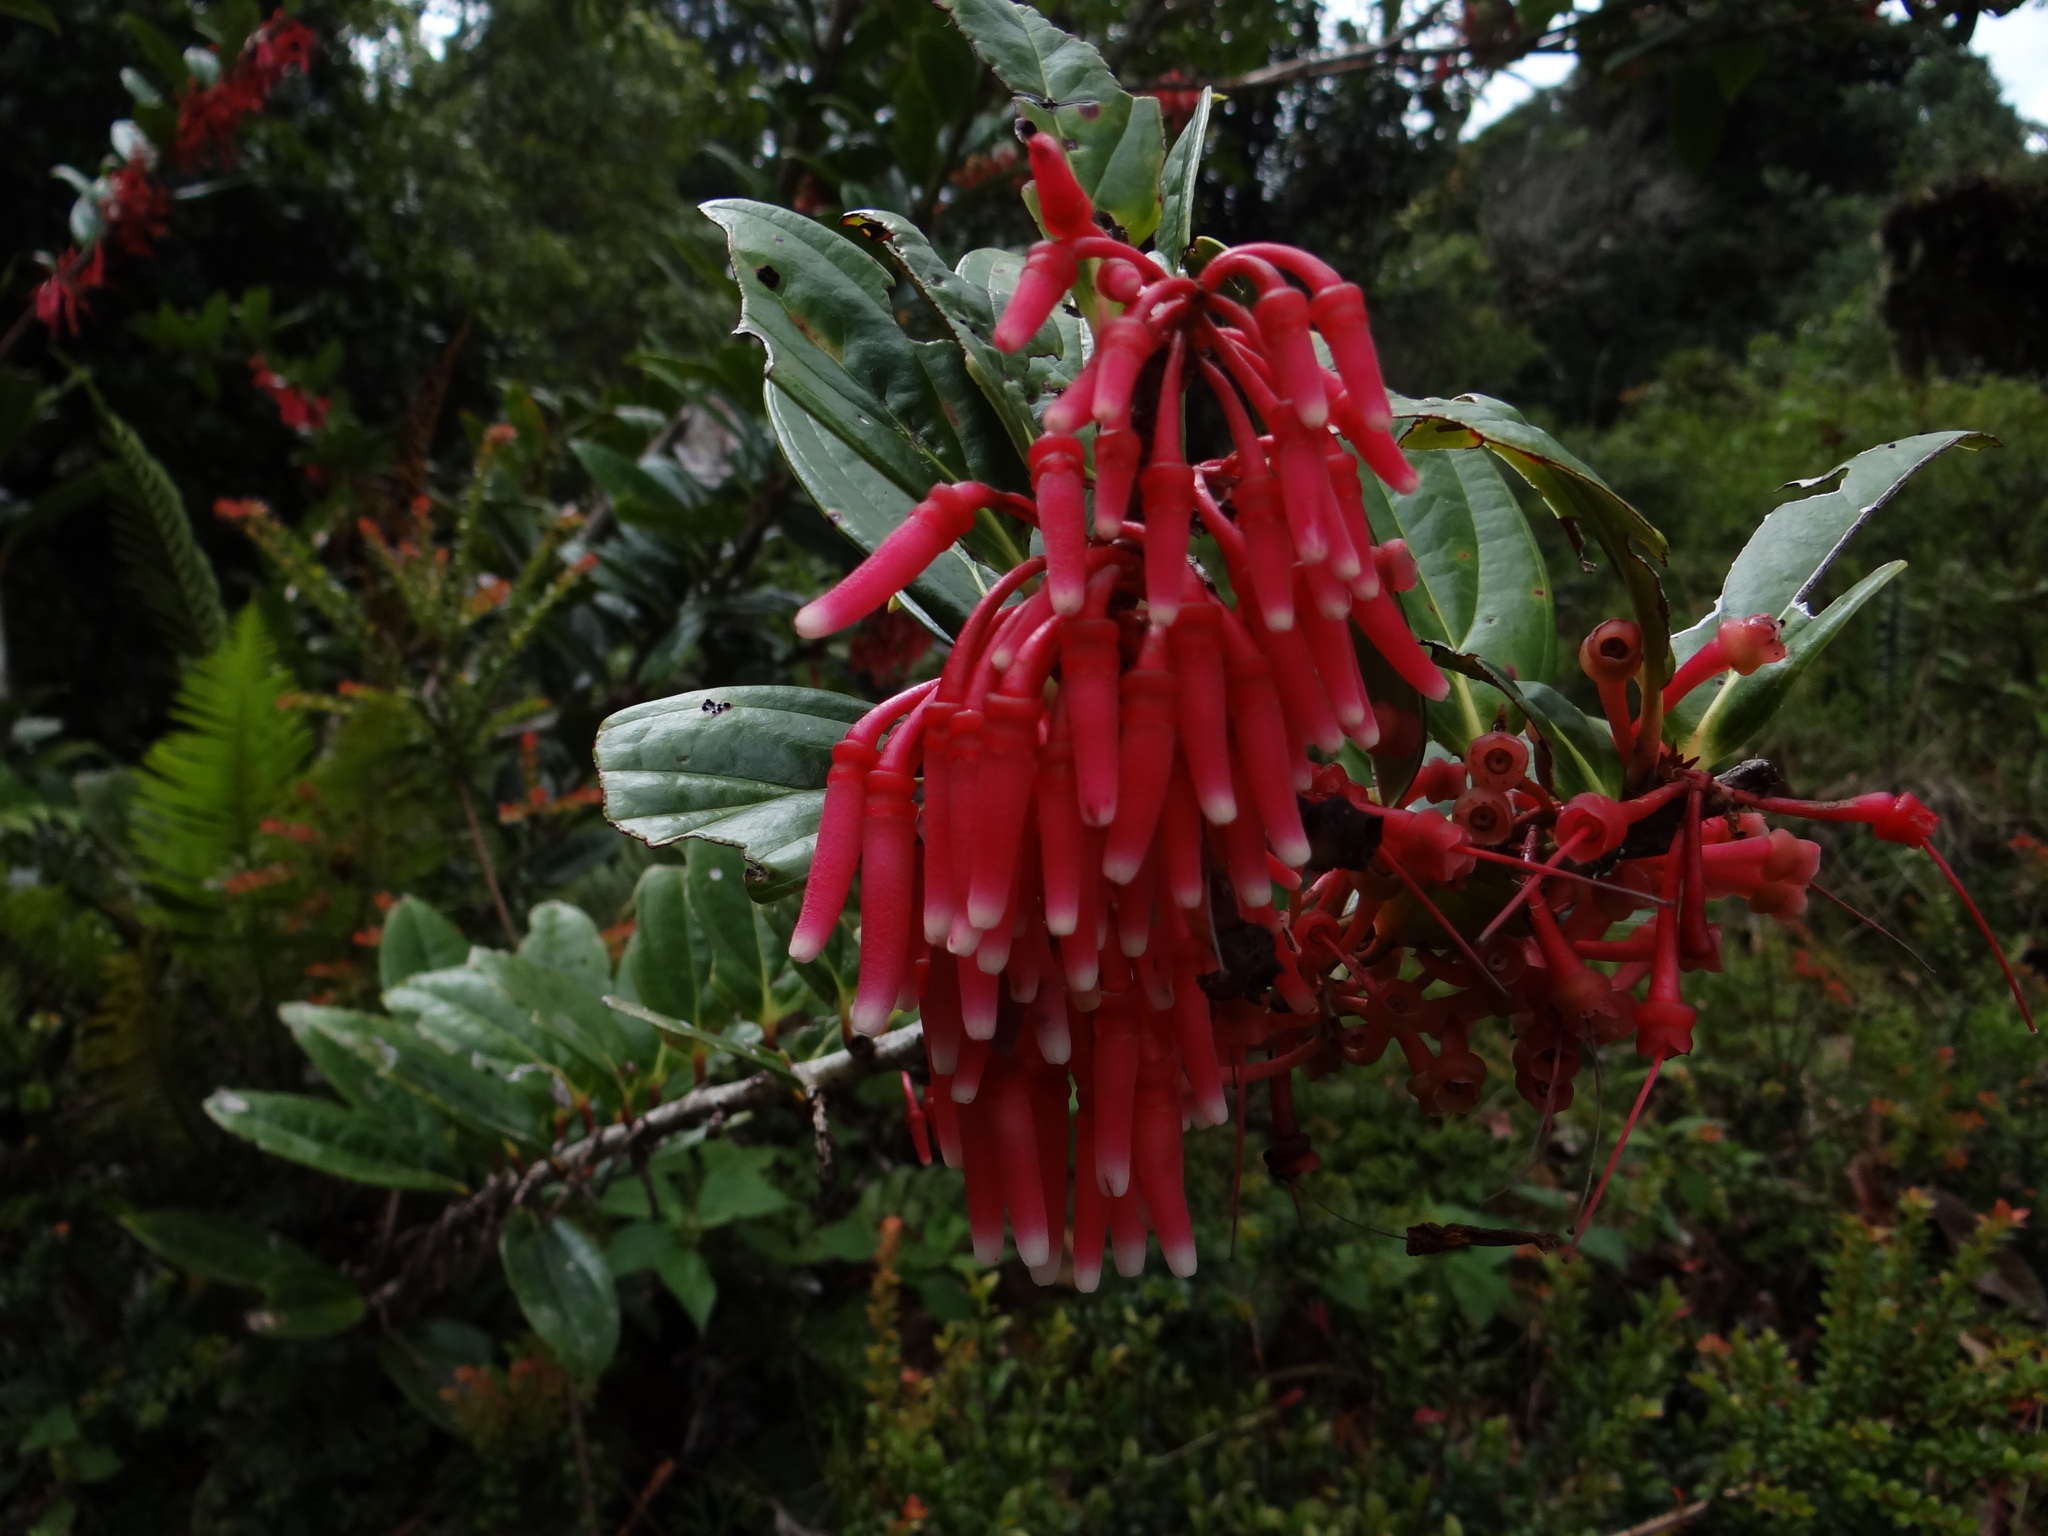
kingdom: Plantae
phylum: Tracheophyta
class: Magnoliopsida
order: Ericales
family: Ericaceae
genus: Satyria
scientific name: Satyria warszewiczii
